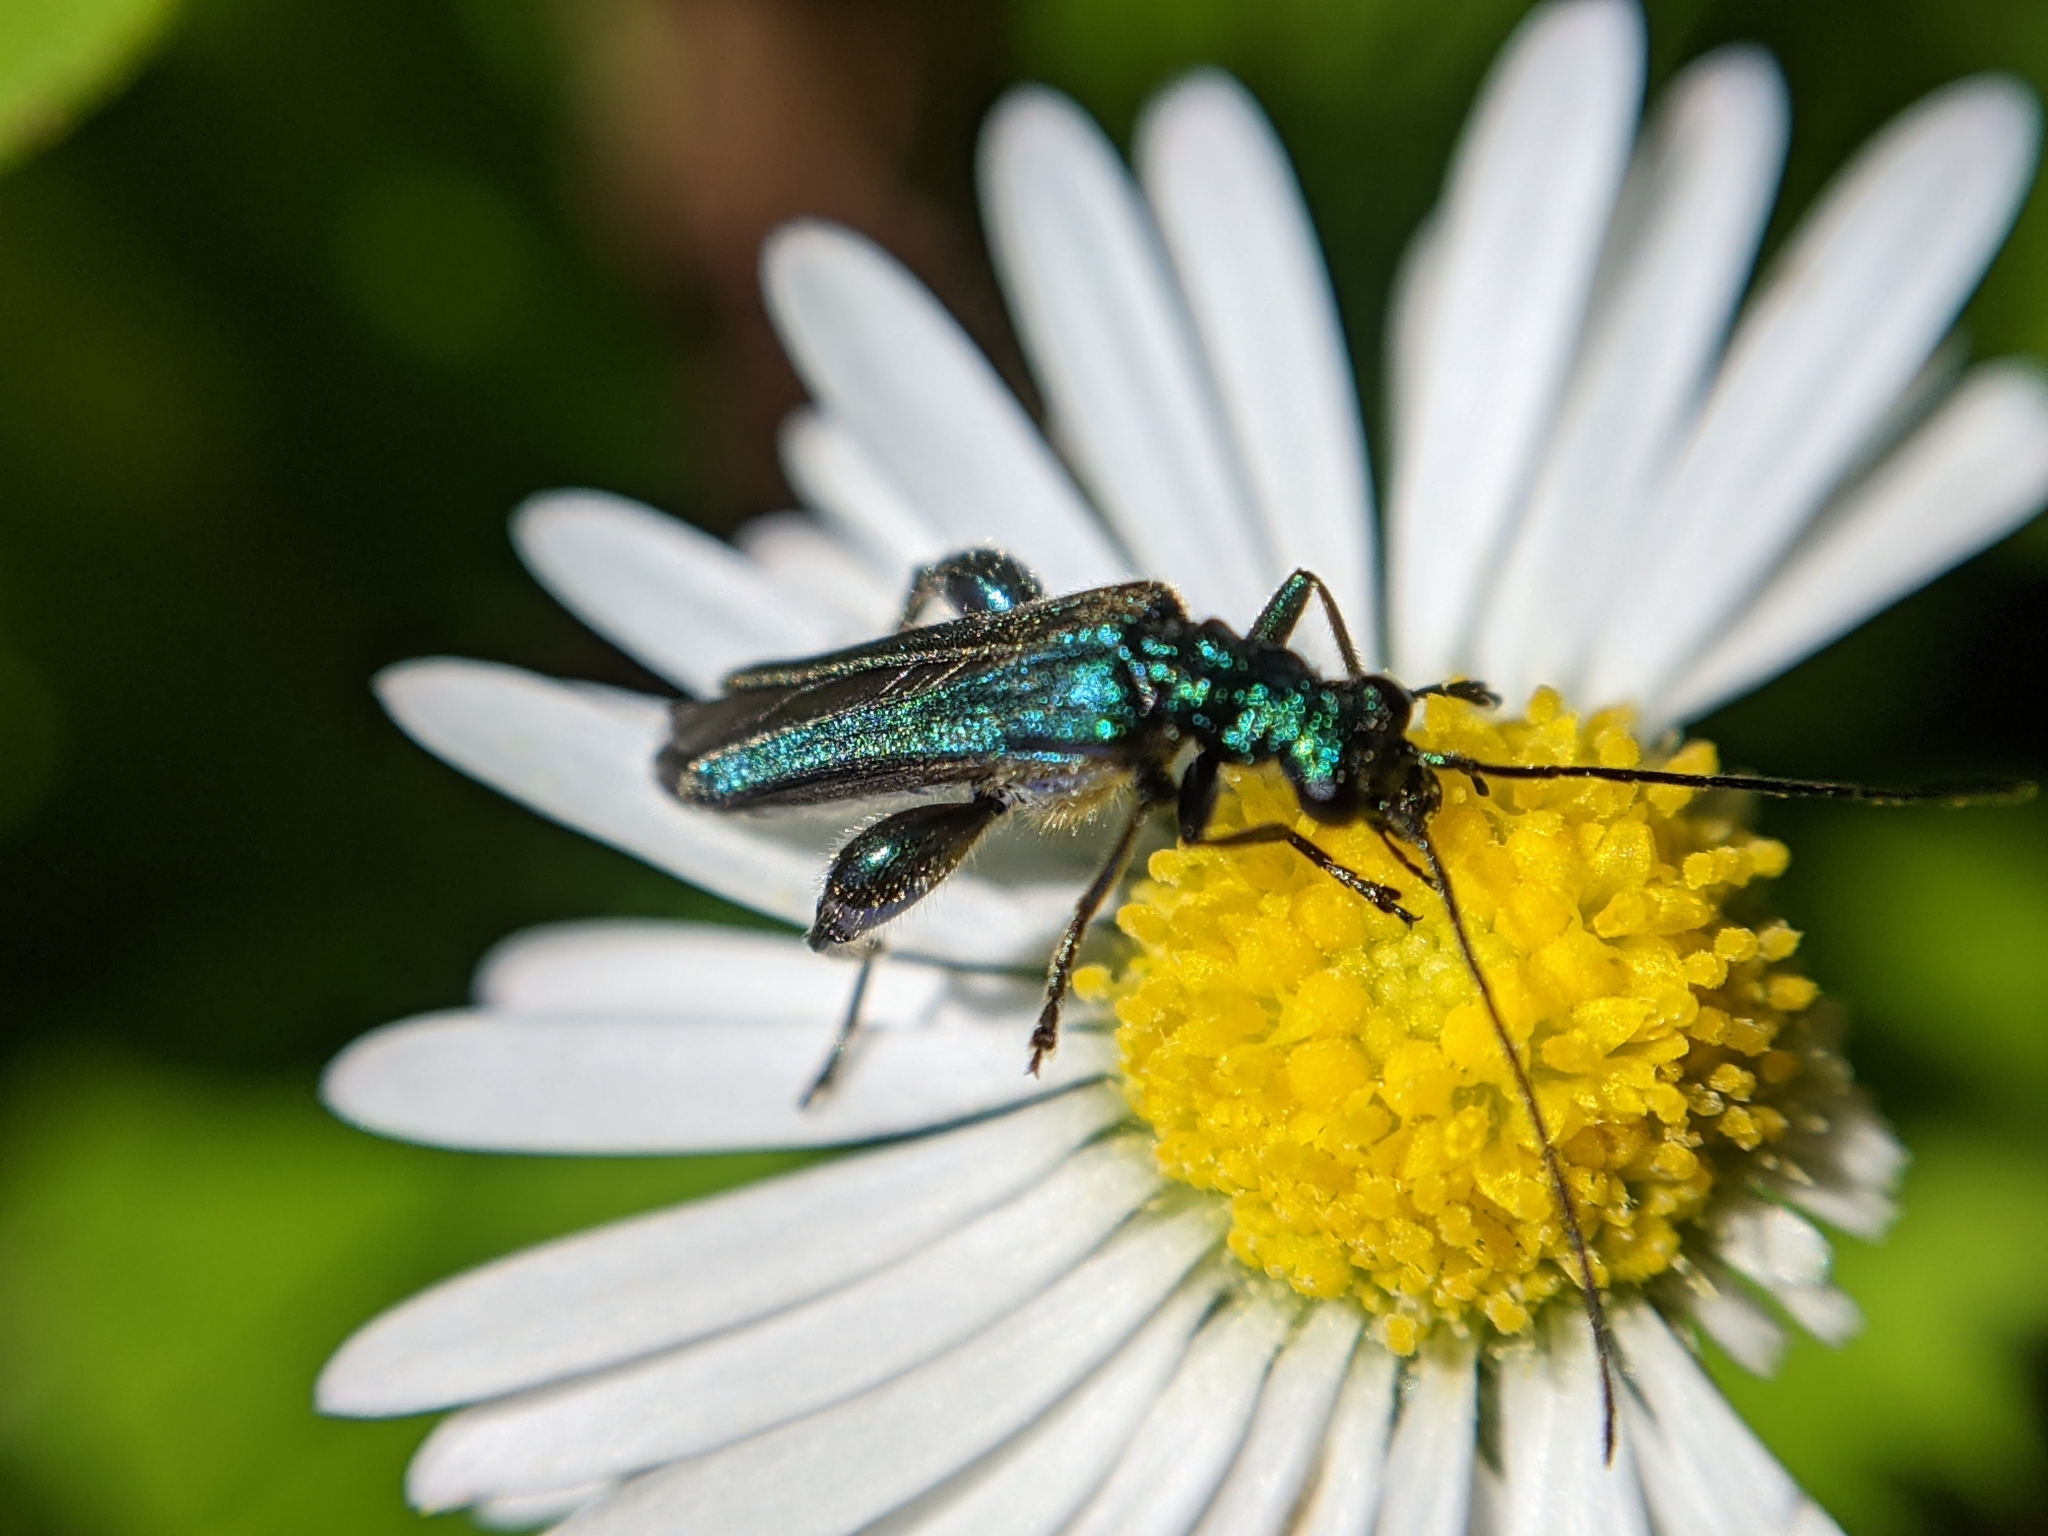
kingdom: Animalia
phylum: Arthropoda
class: Insecta
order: Coleoptera
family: Oedemeridae
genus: Oedemera
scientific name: Oedemera nobilis
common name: Swollen-thighed beetle
